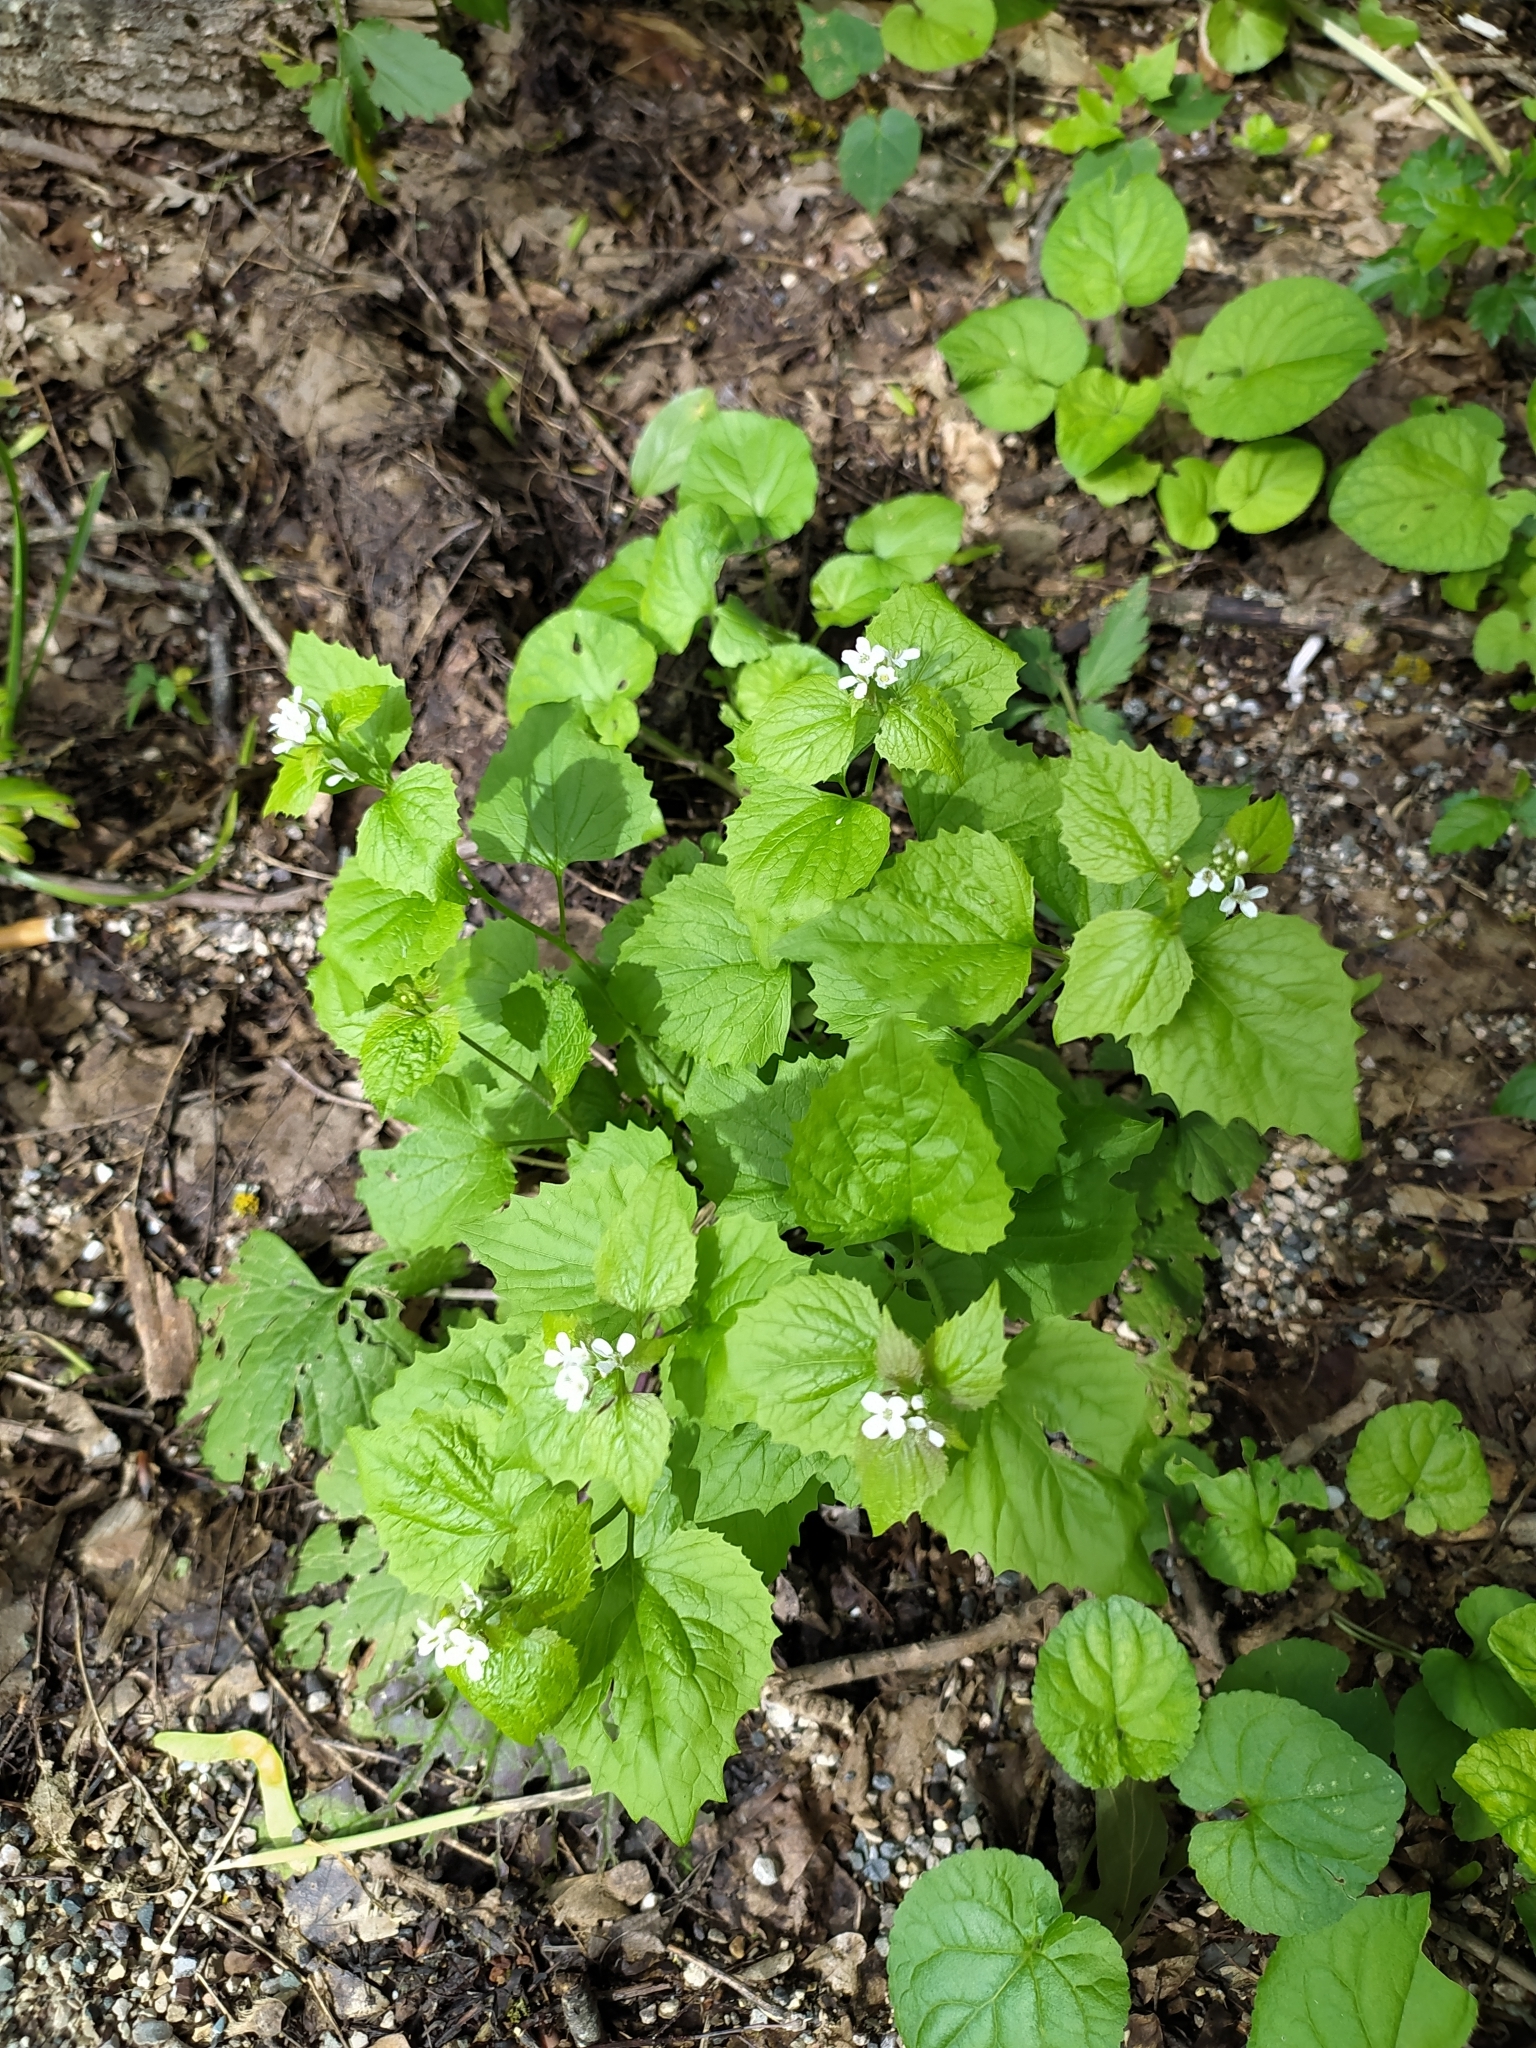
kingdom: Plantae
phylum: Tracheophyta
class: Magnoliopsida
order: Brassicales
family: Brassicaceae
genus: Alliaria
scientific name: Alliaria petiolata
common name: Garlic mustard
